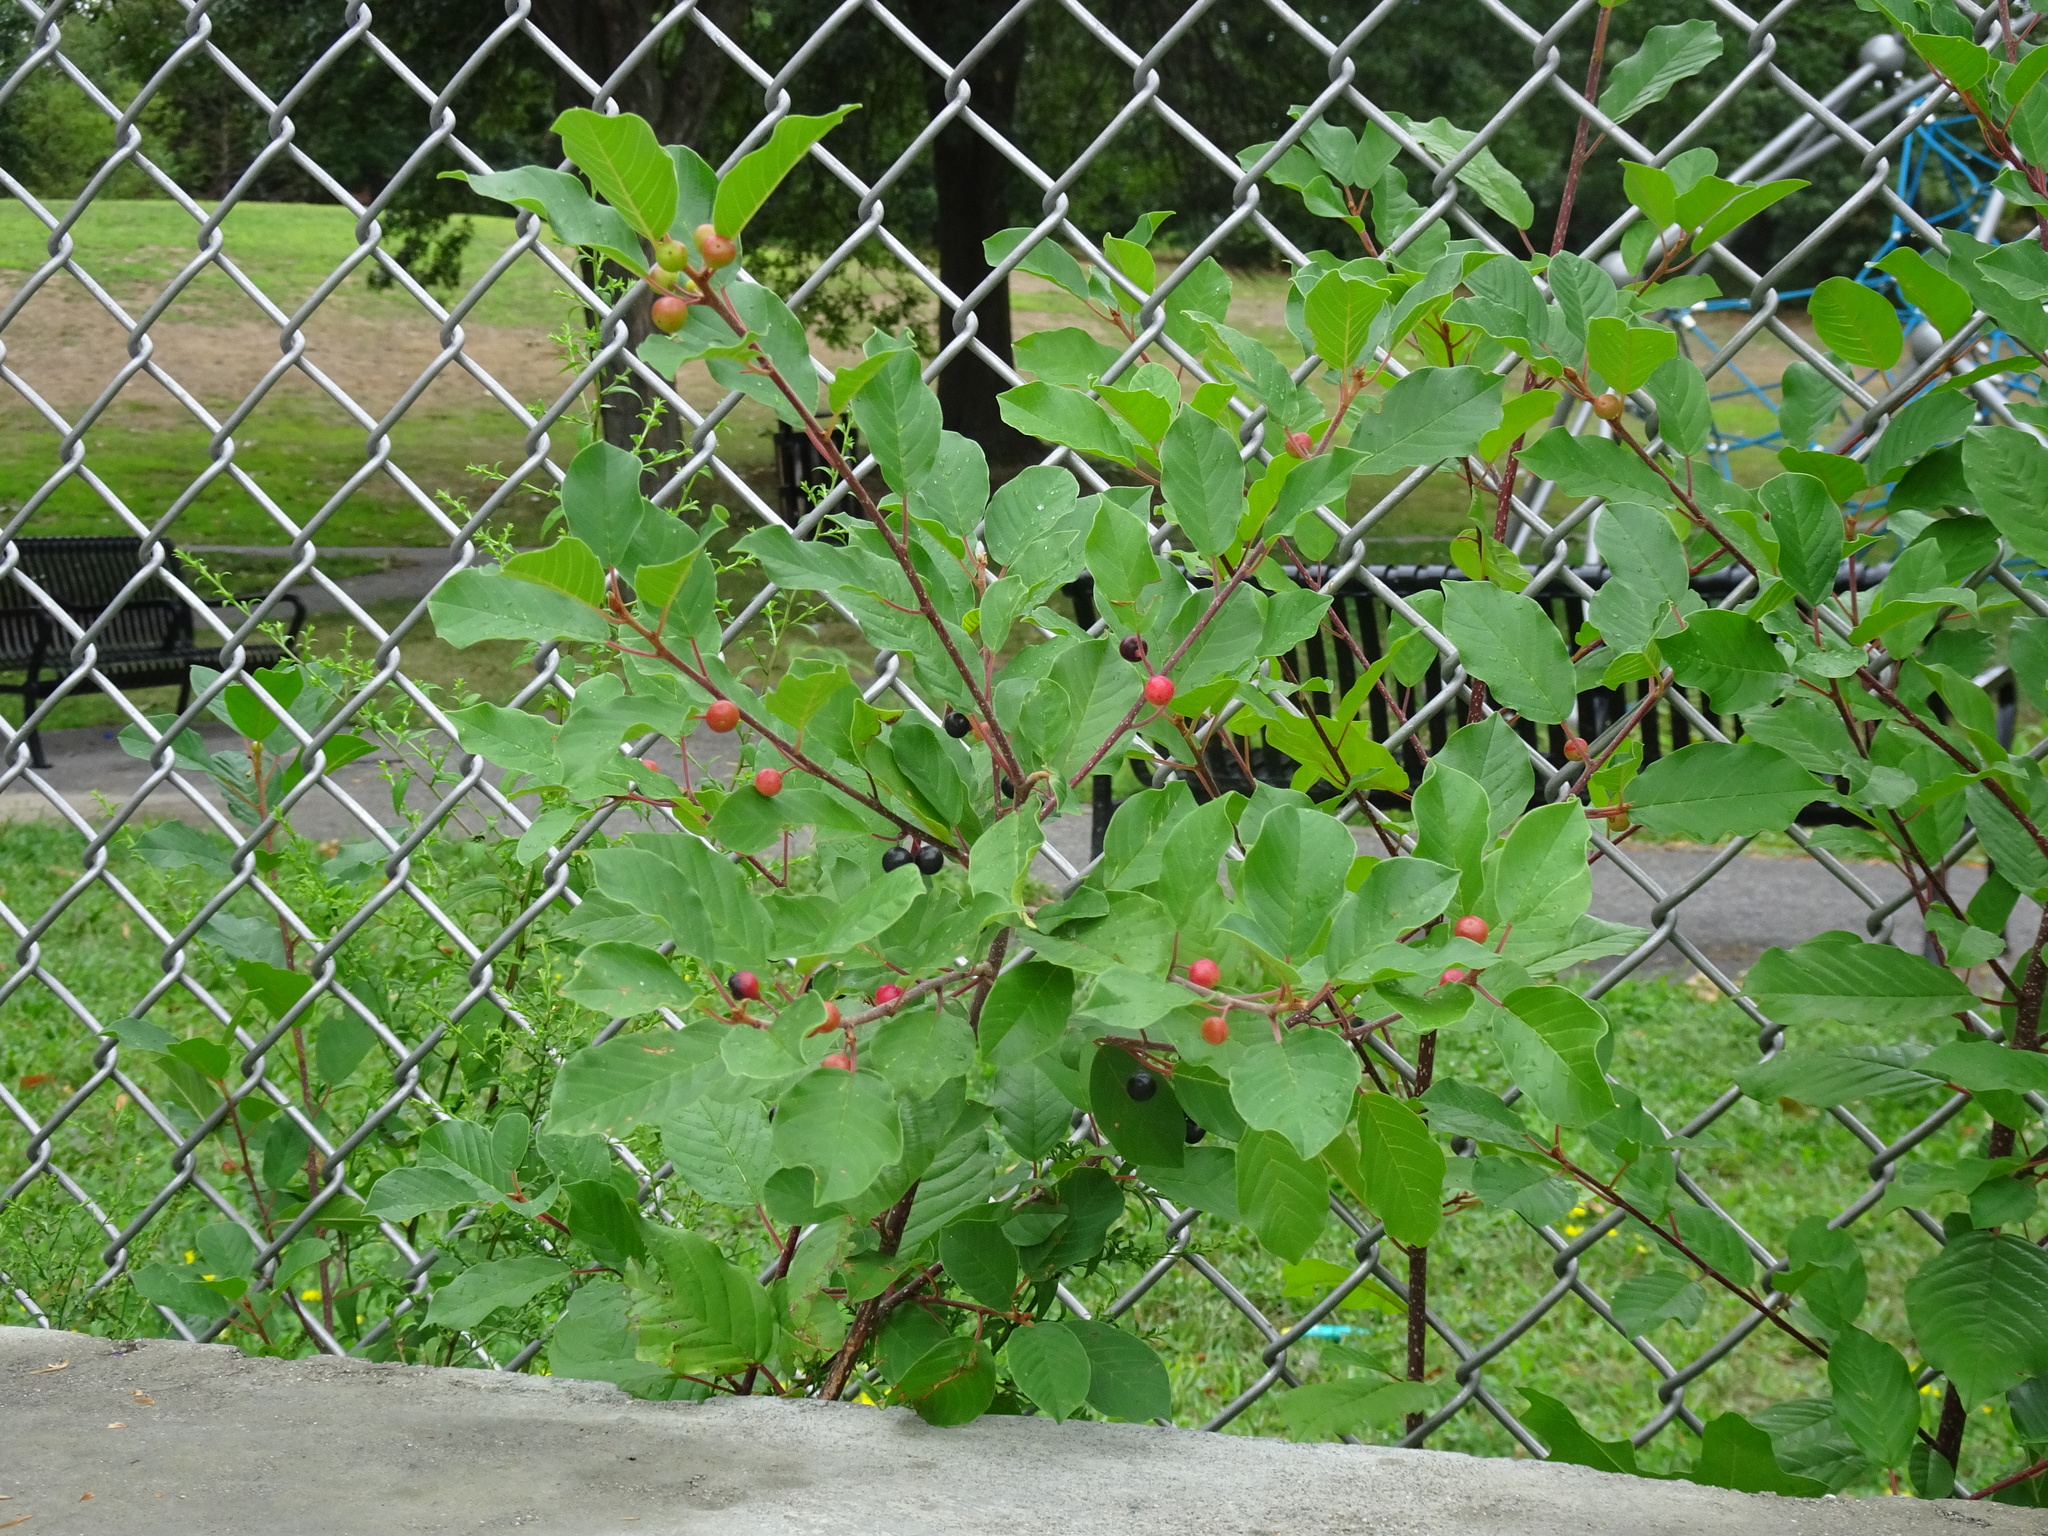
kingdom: Plantae
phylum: Tracheophyta
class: Magnoliopsida
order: Rosales
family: Rhamnaceae
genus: Frangula
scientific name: Frangula alnus
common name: Alder buckthorn
